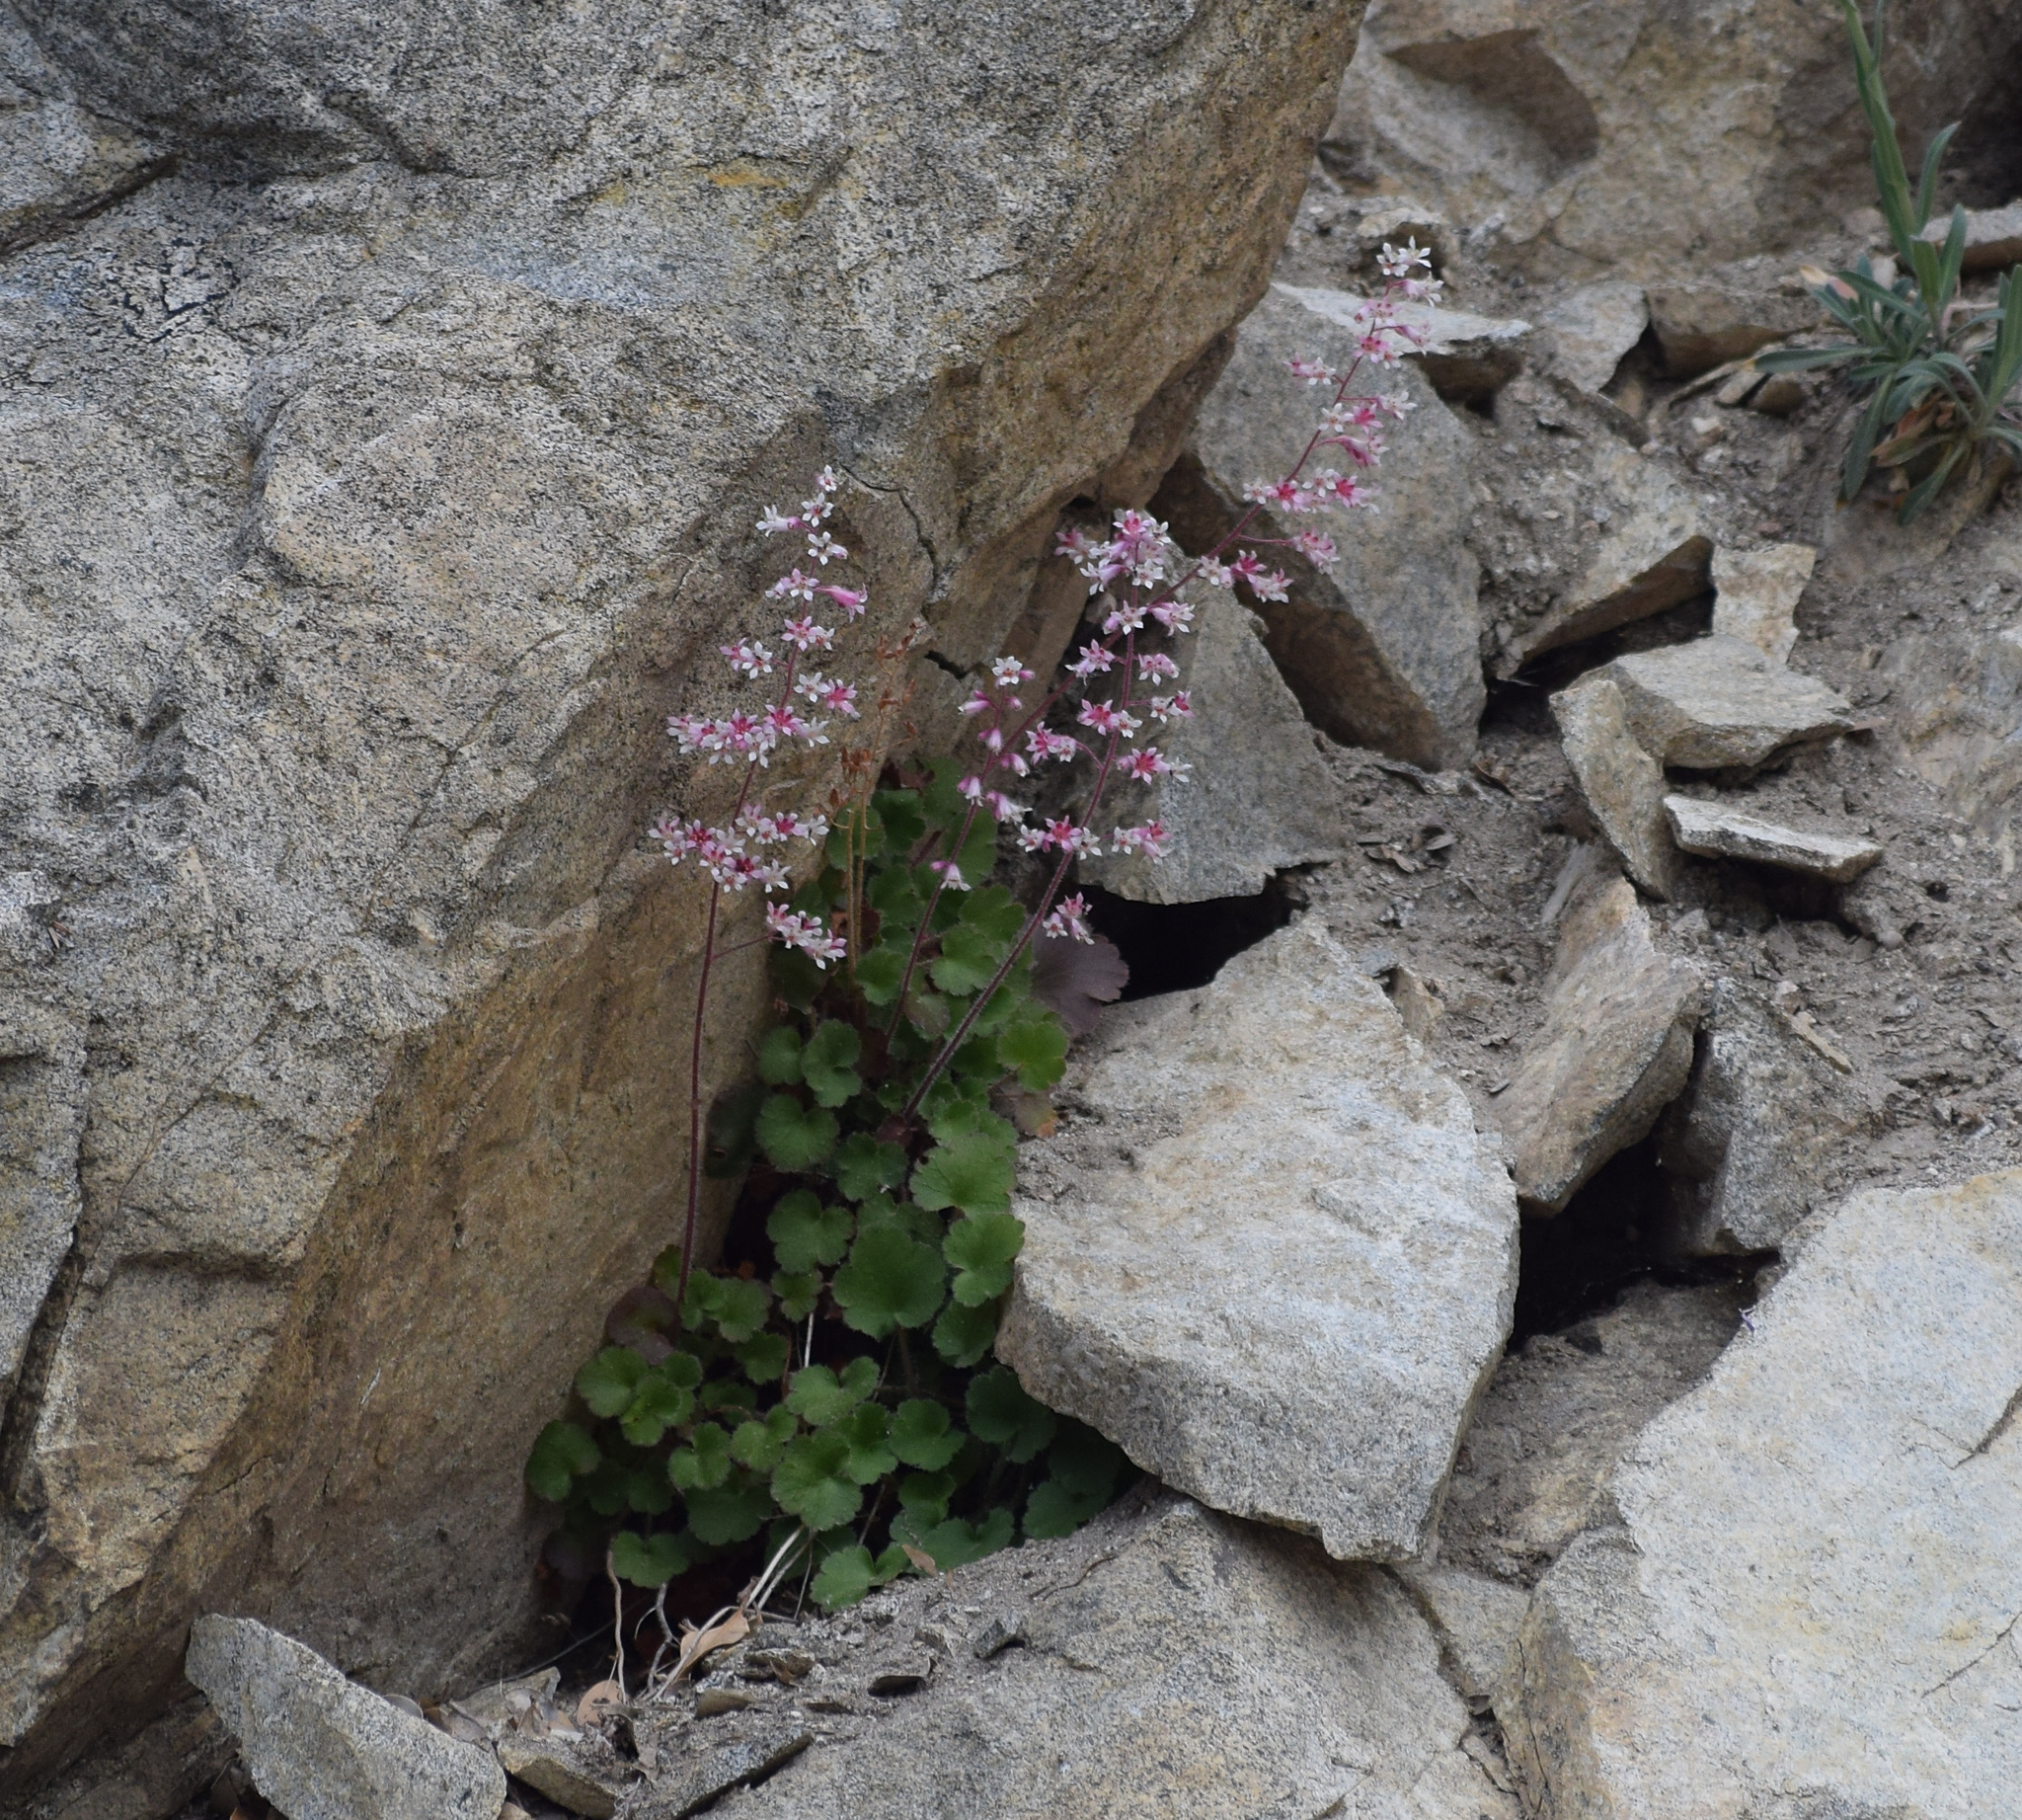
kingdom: Plantae
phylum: Tracheophyta
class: Magnoliopsida
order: Saxifragales
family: Saxifragaceae
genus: Heuchera
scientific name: Heuchera elegans
